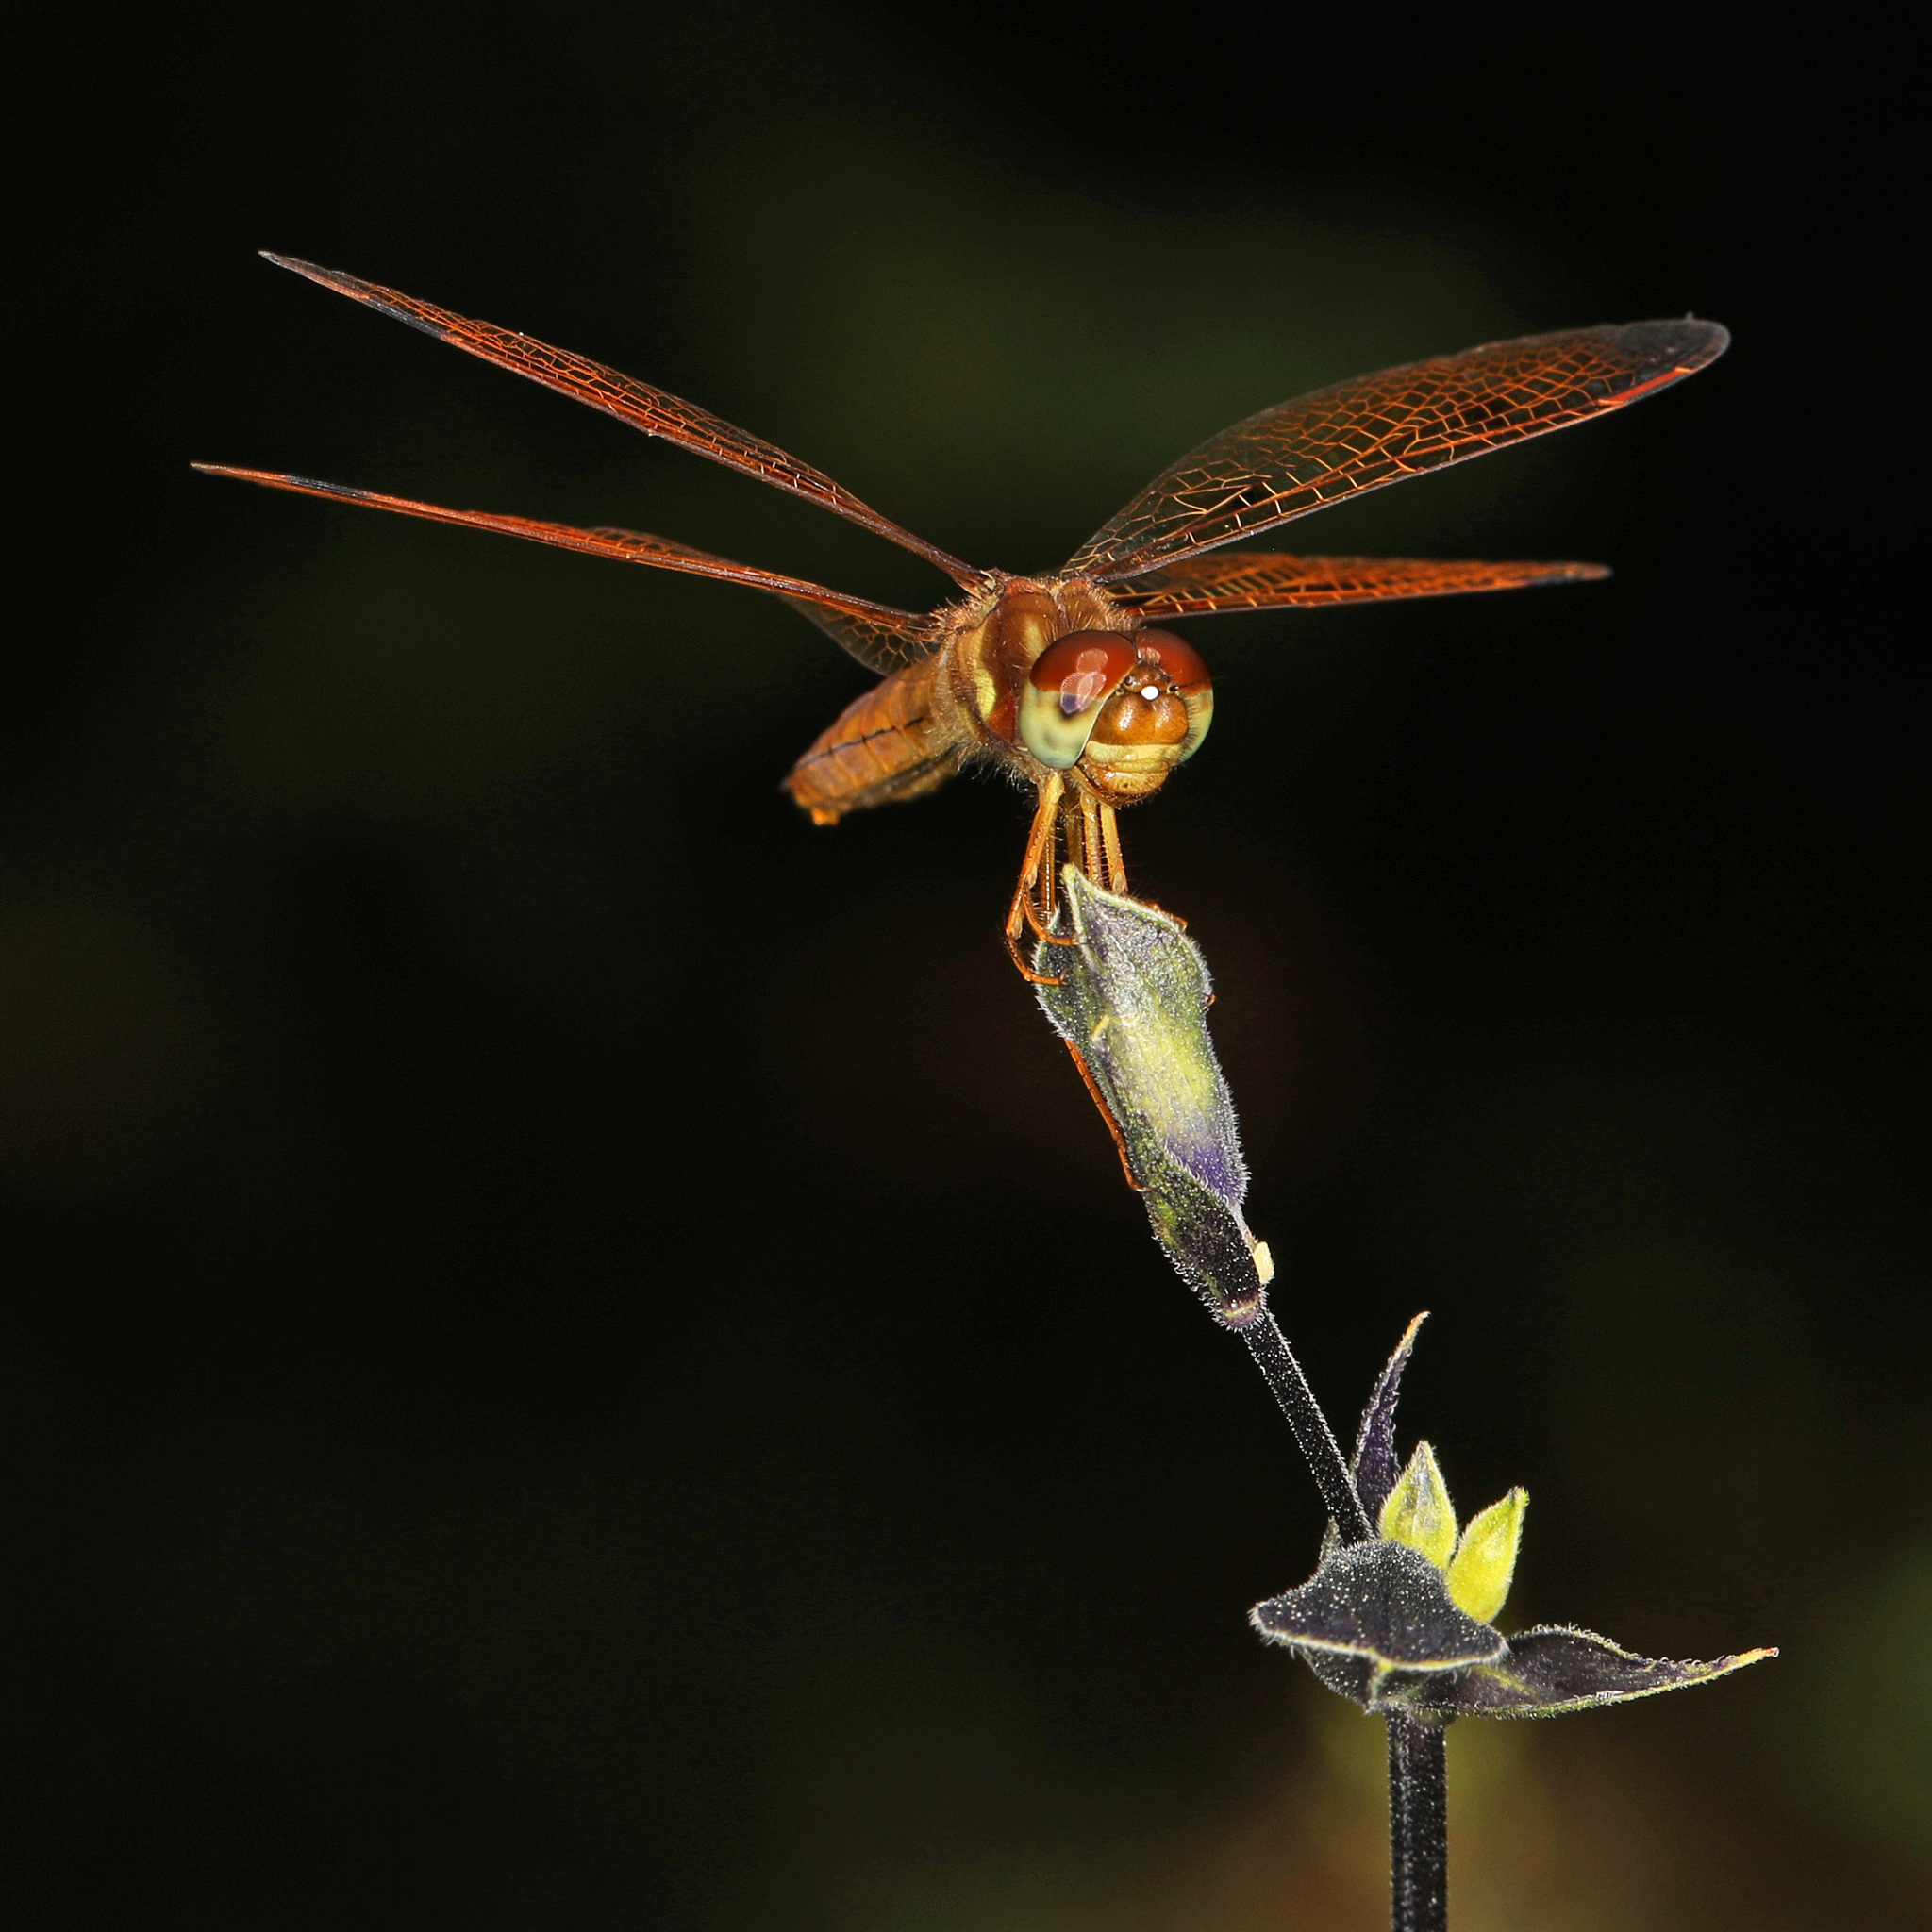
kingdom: Animalia
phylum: Arthropoda
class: Insecta
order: Odonata
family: Libellulidae
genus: Perithemis
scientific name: Perithemis tenera
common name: Eastern amberwing
